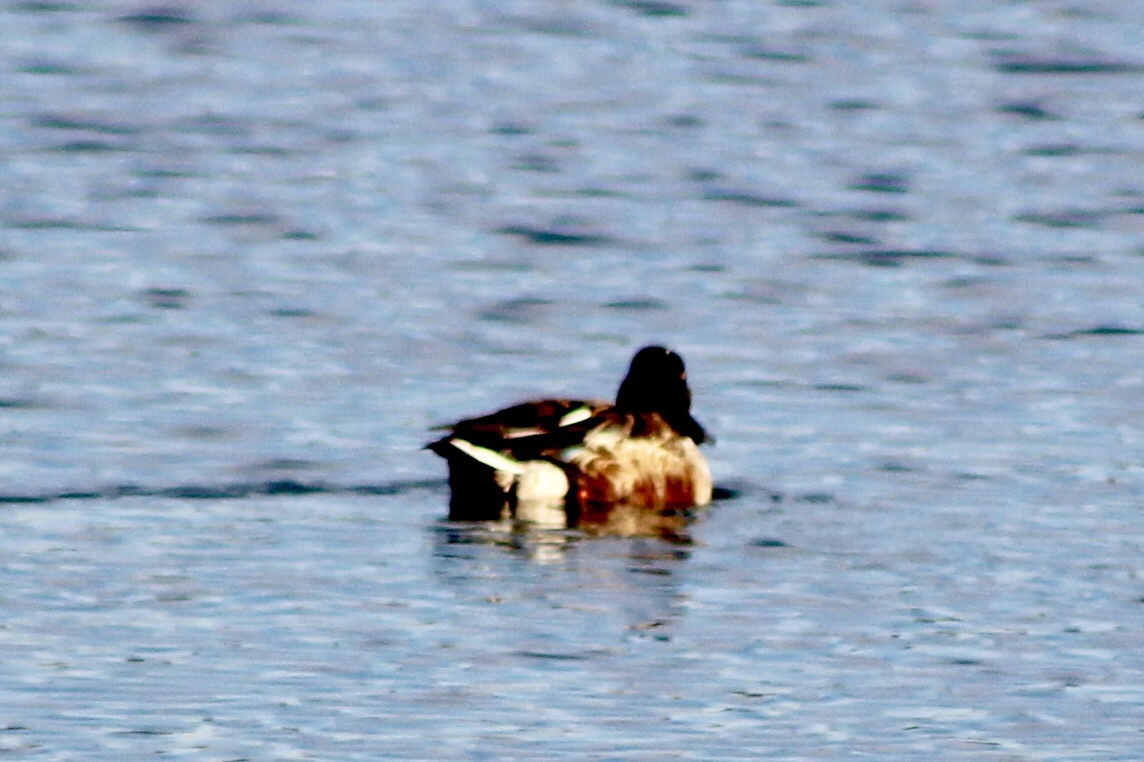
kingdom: Animalia
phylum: Chordata
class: Aves
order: Anseriformes
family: Anatidae
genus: Spatula
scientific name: Spatula clypeata
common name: Northern shoveler
